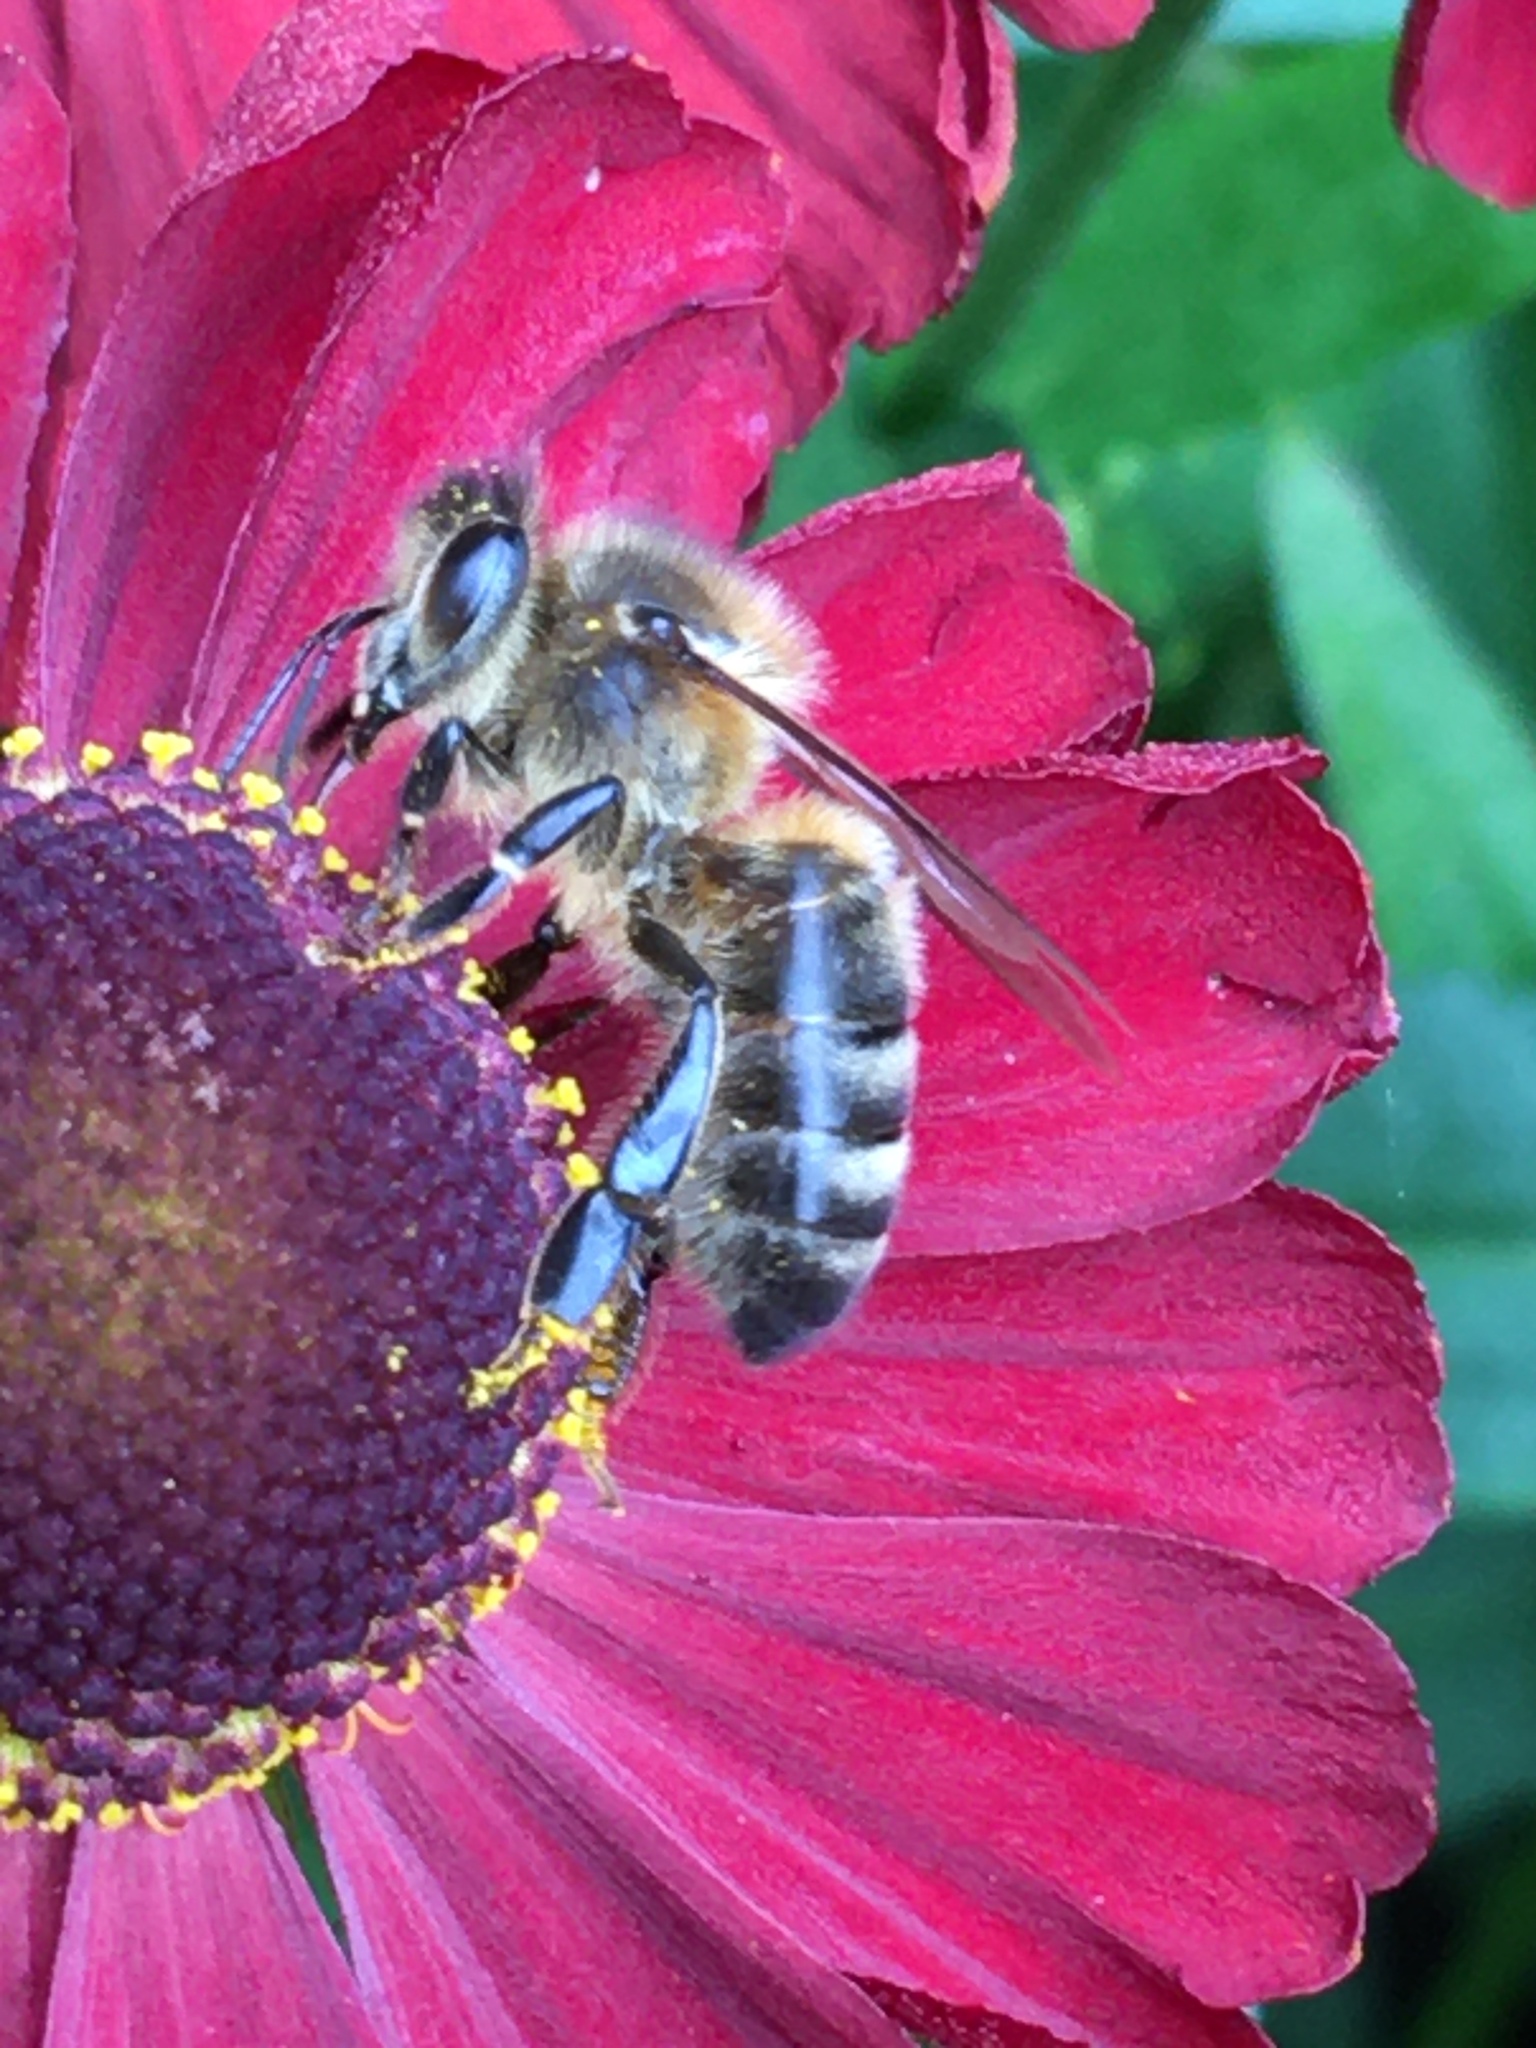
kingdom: Animalia
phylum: Arthropoda
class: Insecta
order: Hymenoptera
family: Apidae
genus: Apis
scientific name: Apis mellifera
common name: Honey bee
